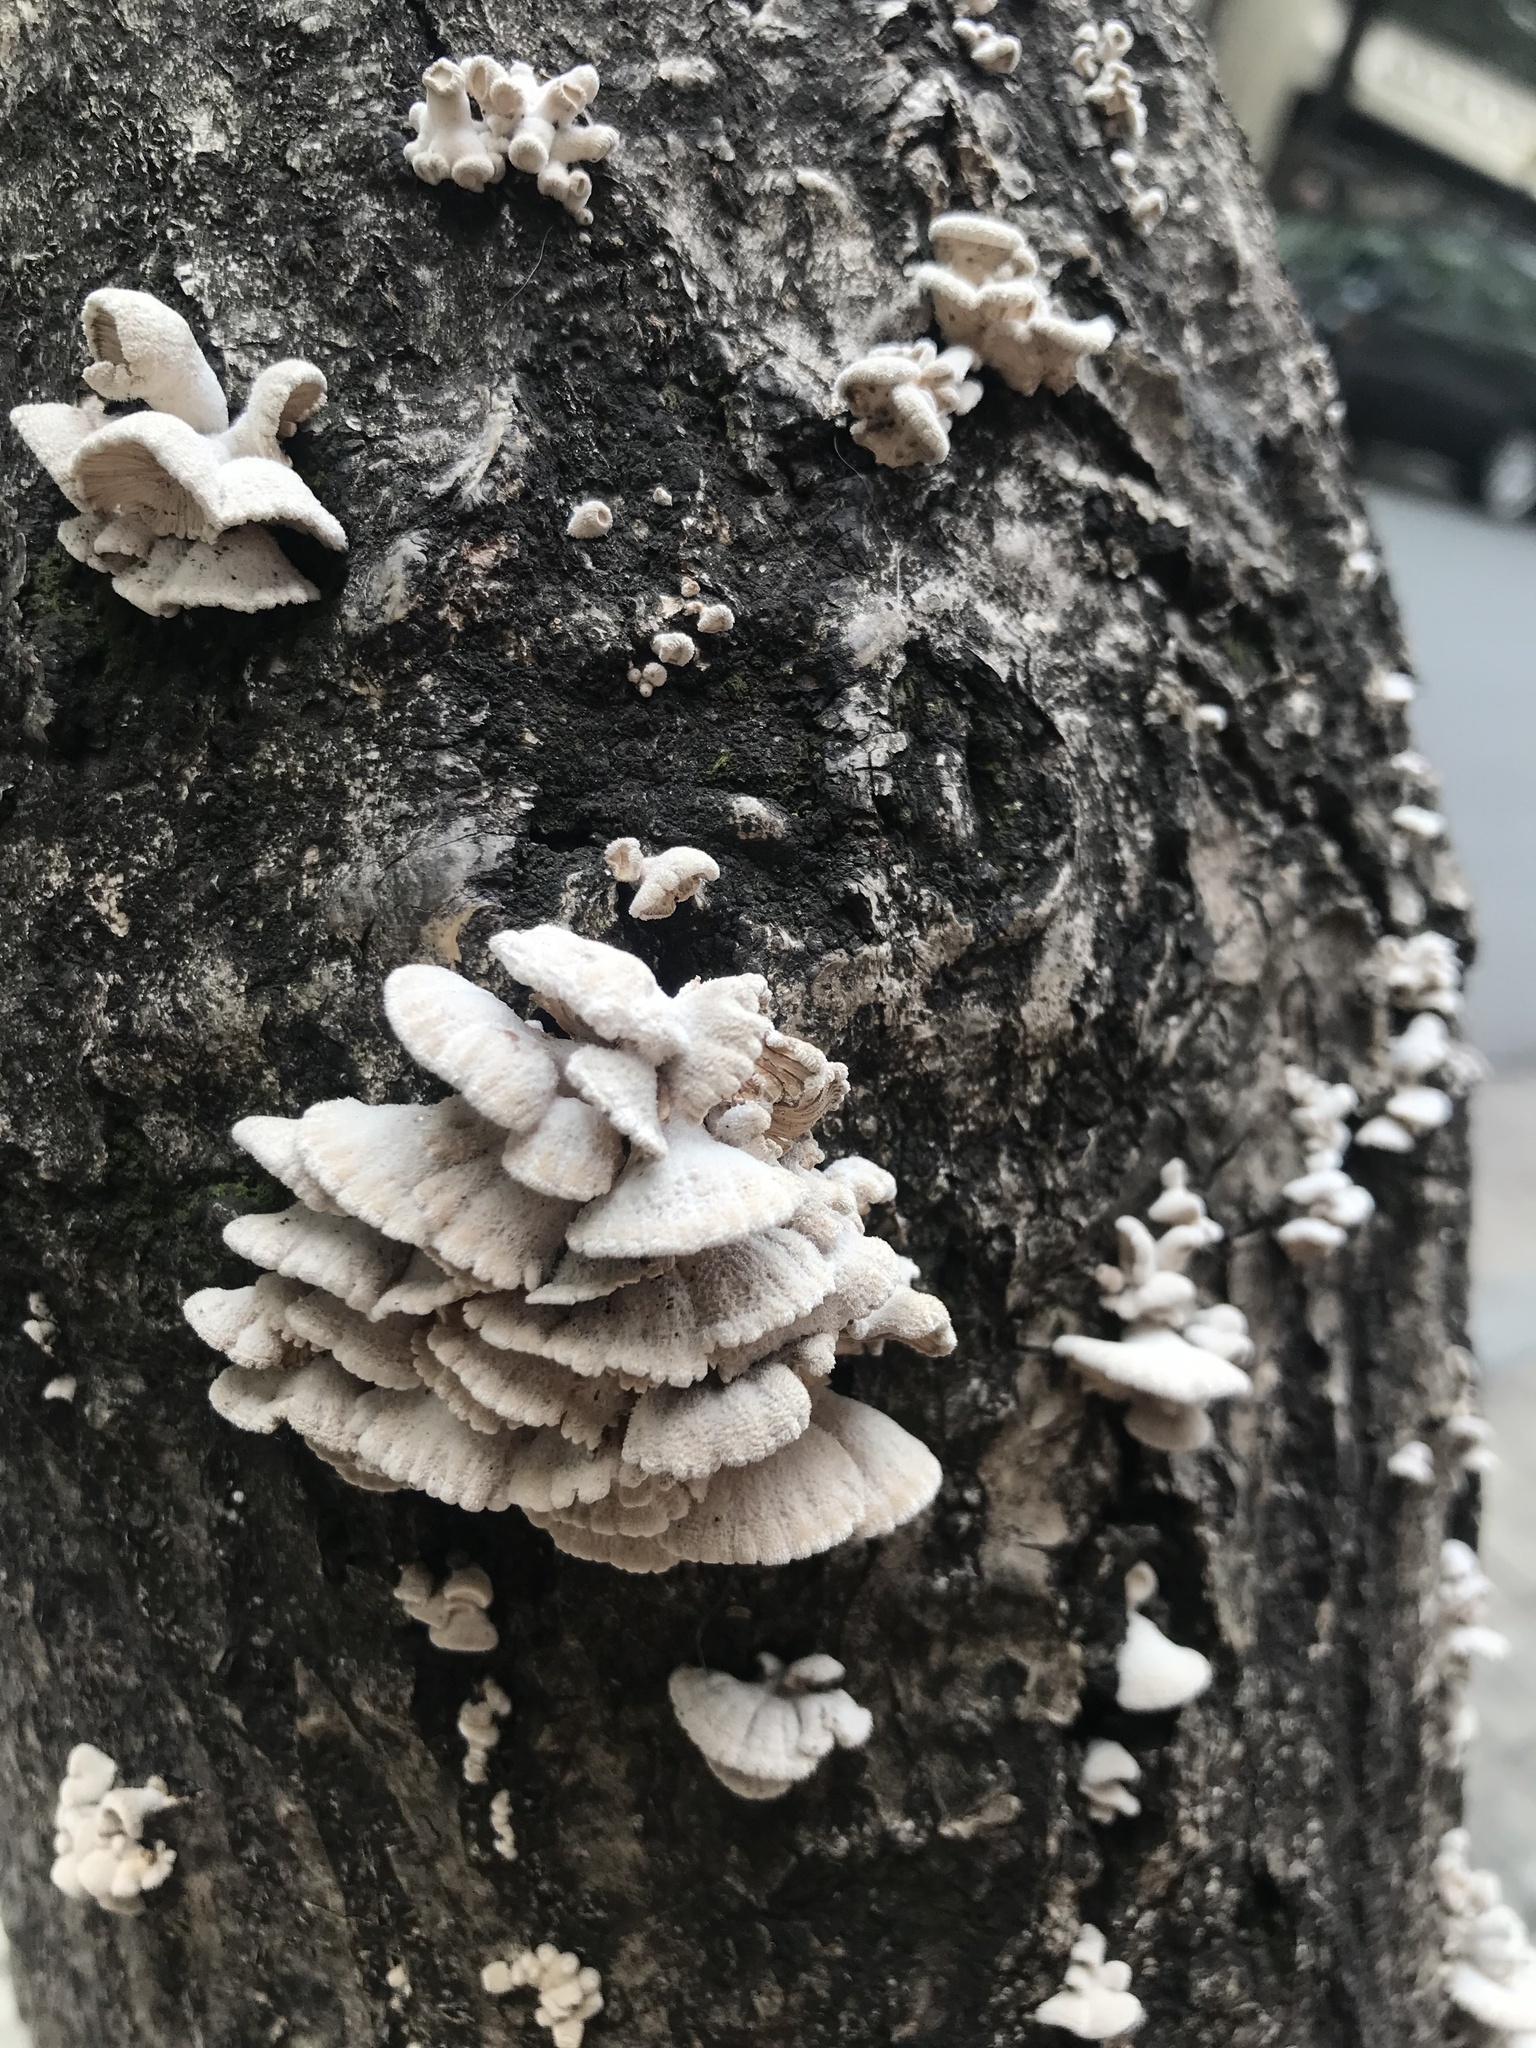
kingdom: Fungi
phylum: Basidiomycota
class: Agaricomycetes
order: Agaricales
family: Schizophyllaceae
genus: Schizophyllum
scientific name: Schizophyllum commune
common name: Common porecrust
